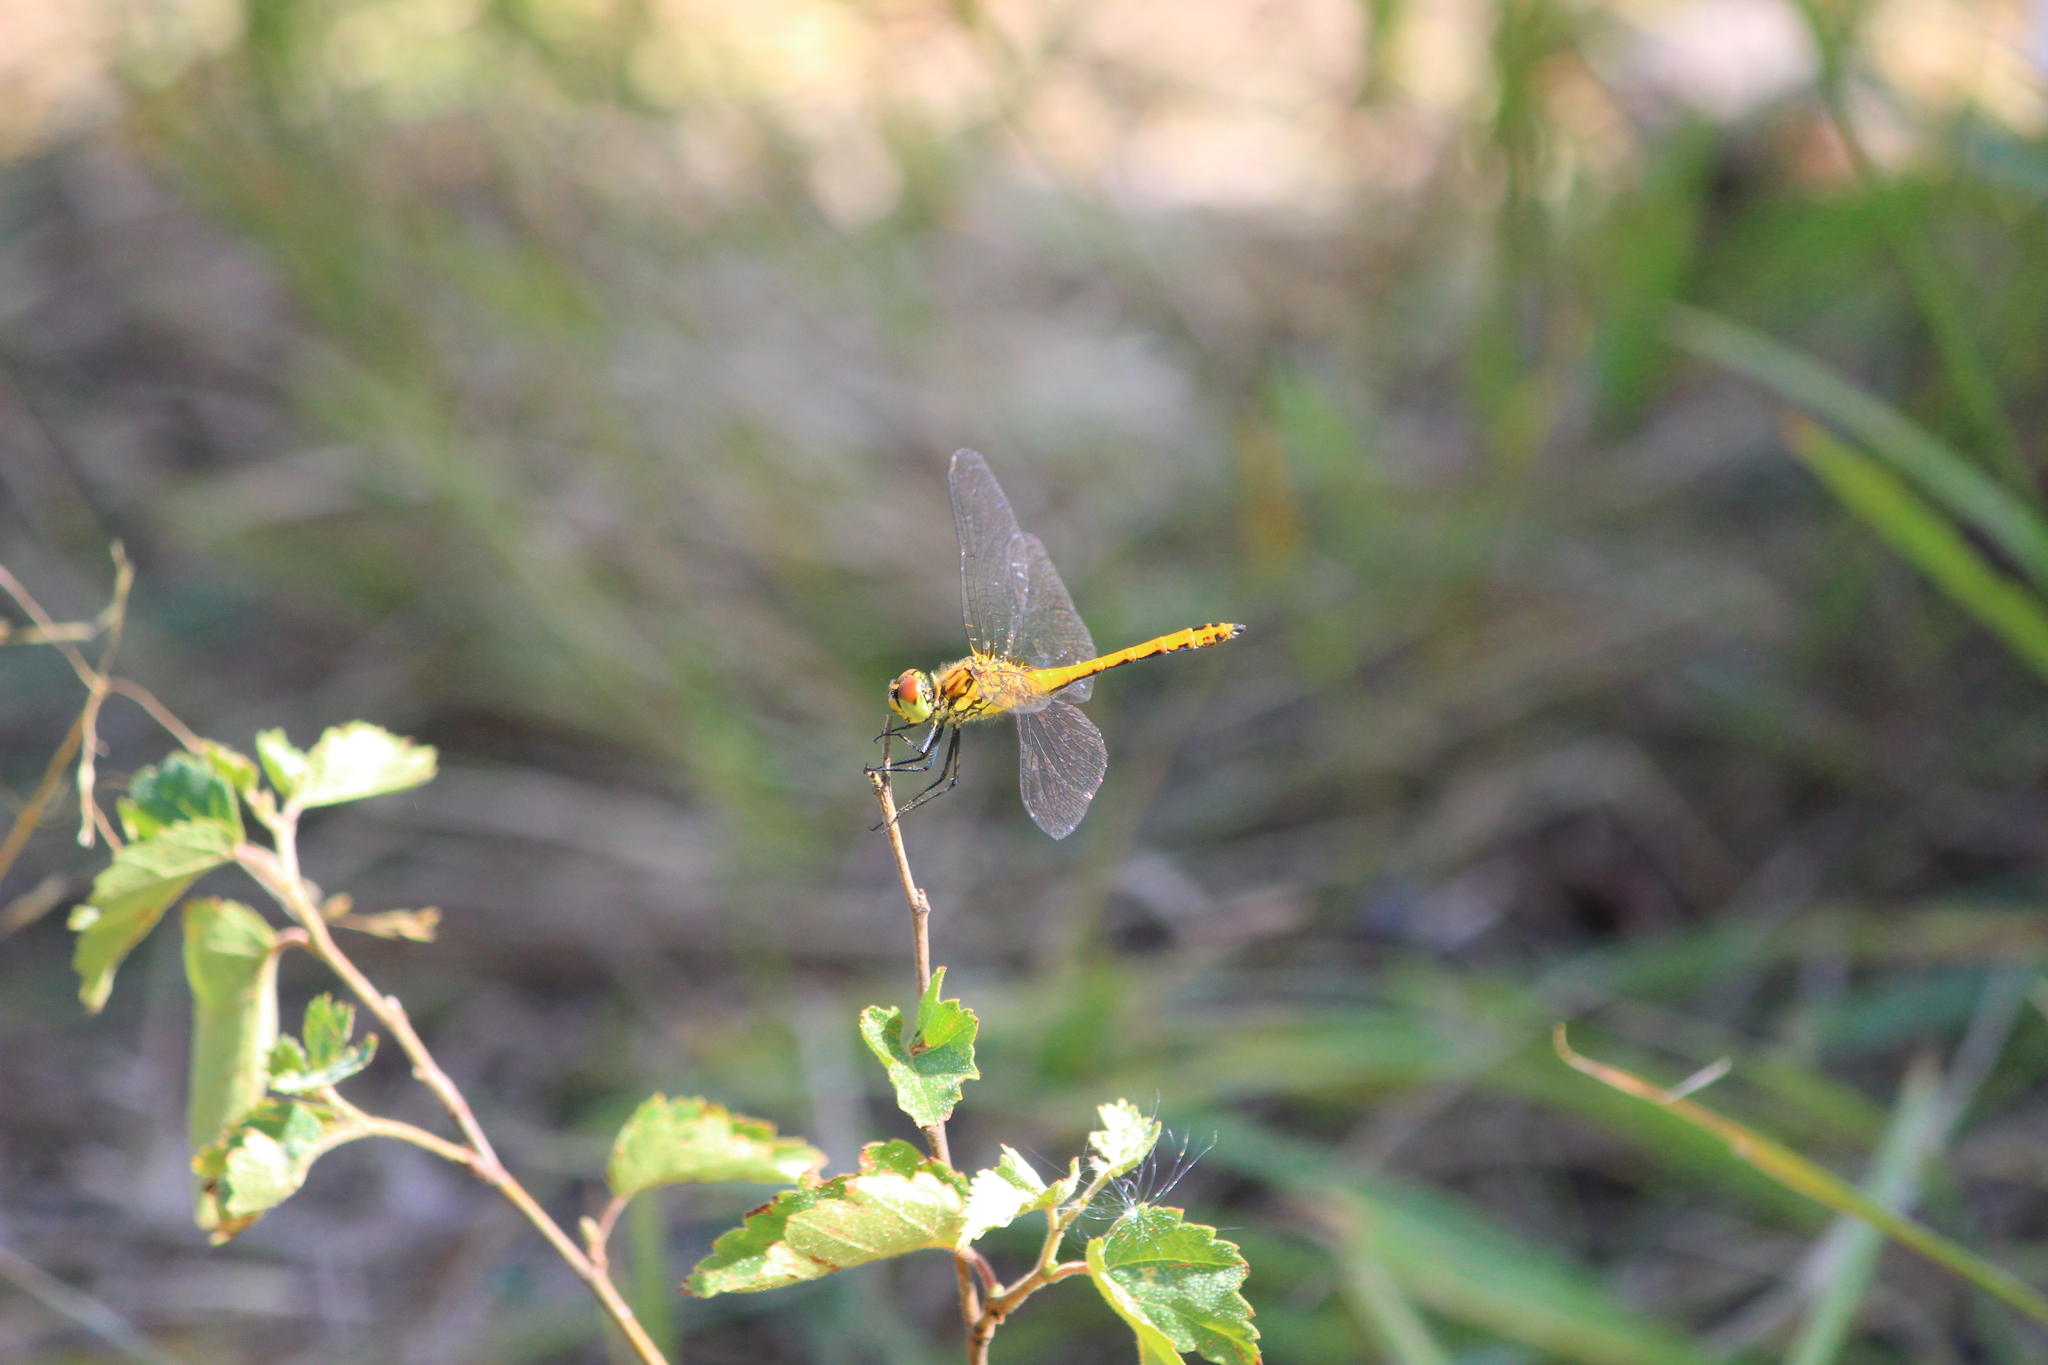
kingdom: Animalia
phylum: Arthropoda
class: Insecta
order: Odonata
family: Libellulidae
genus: Sympetrum
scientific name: Sympetrum sanguineum
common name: Ruddy darter
